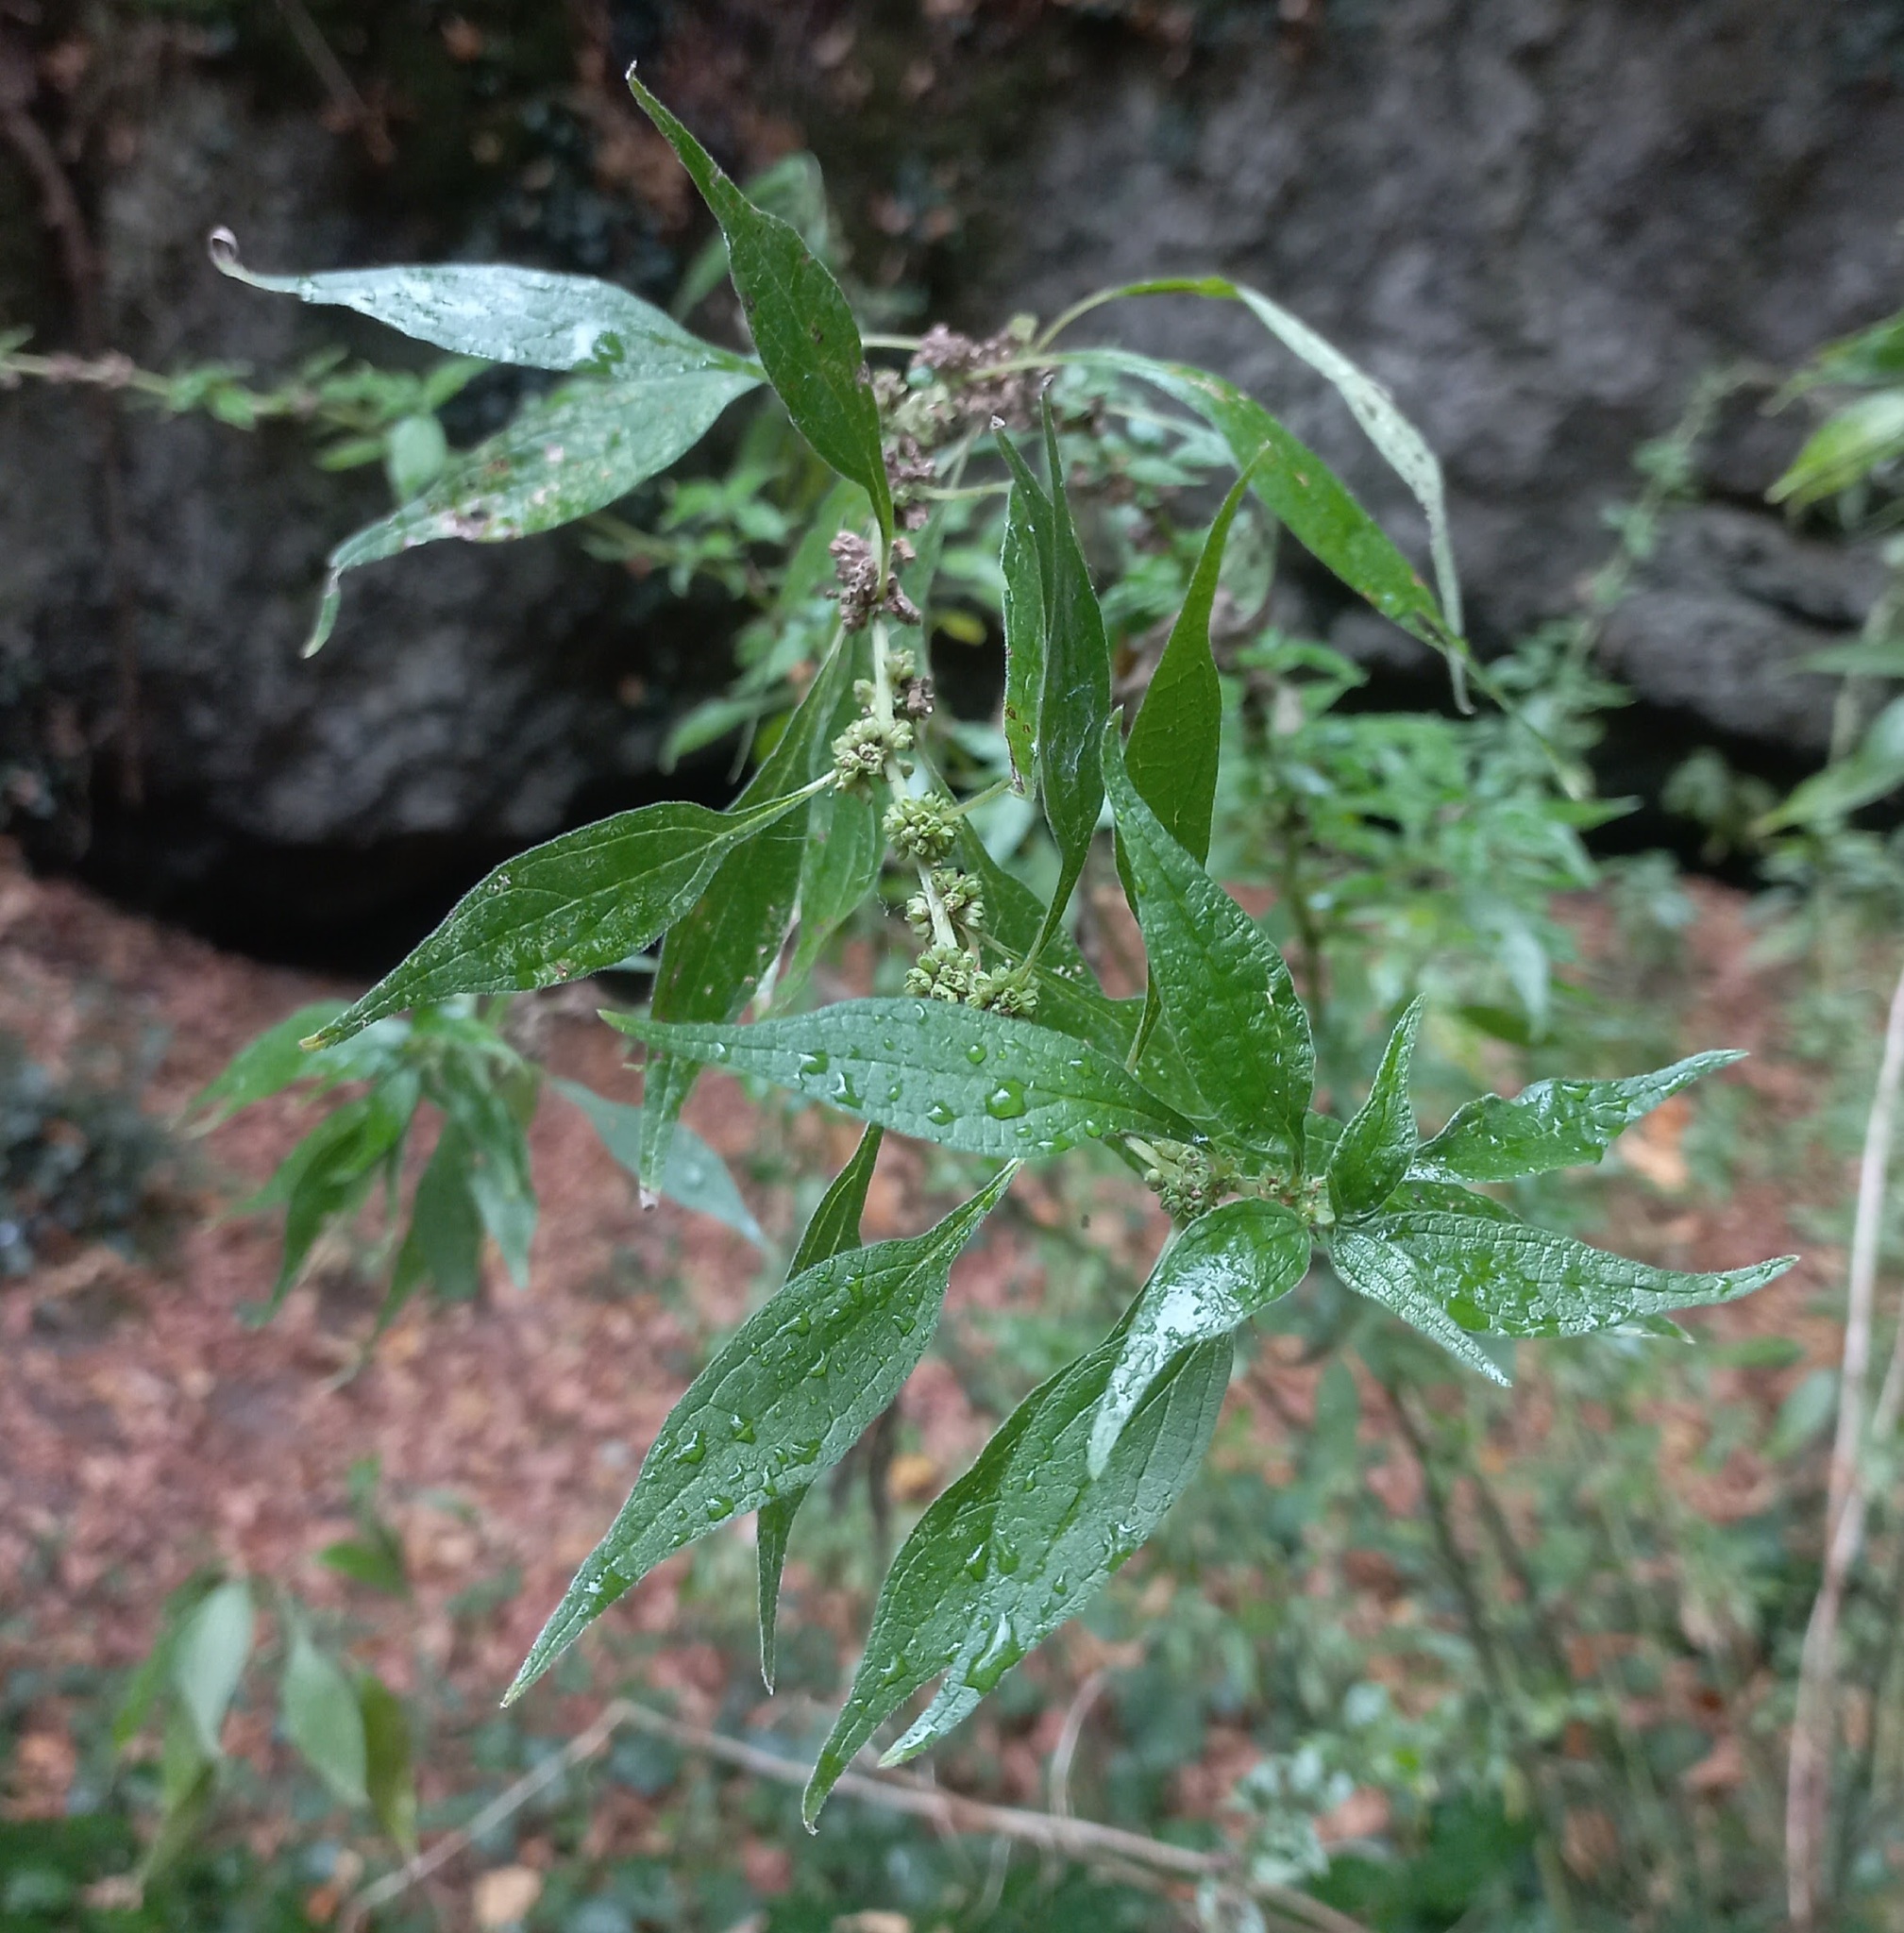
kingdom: Plantae
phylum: Tracheophyta
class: Magnoliopsida
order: Rosales
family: Urticaceae
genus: Parietaria
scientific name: Parietaria officinalis
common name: Eastern pellitory-of-the-wall
